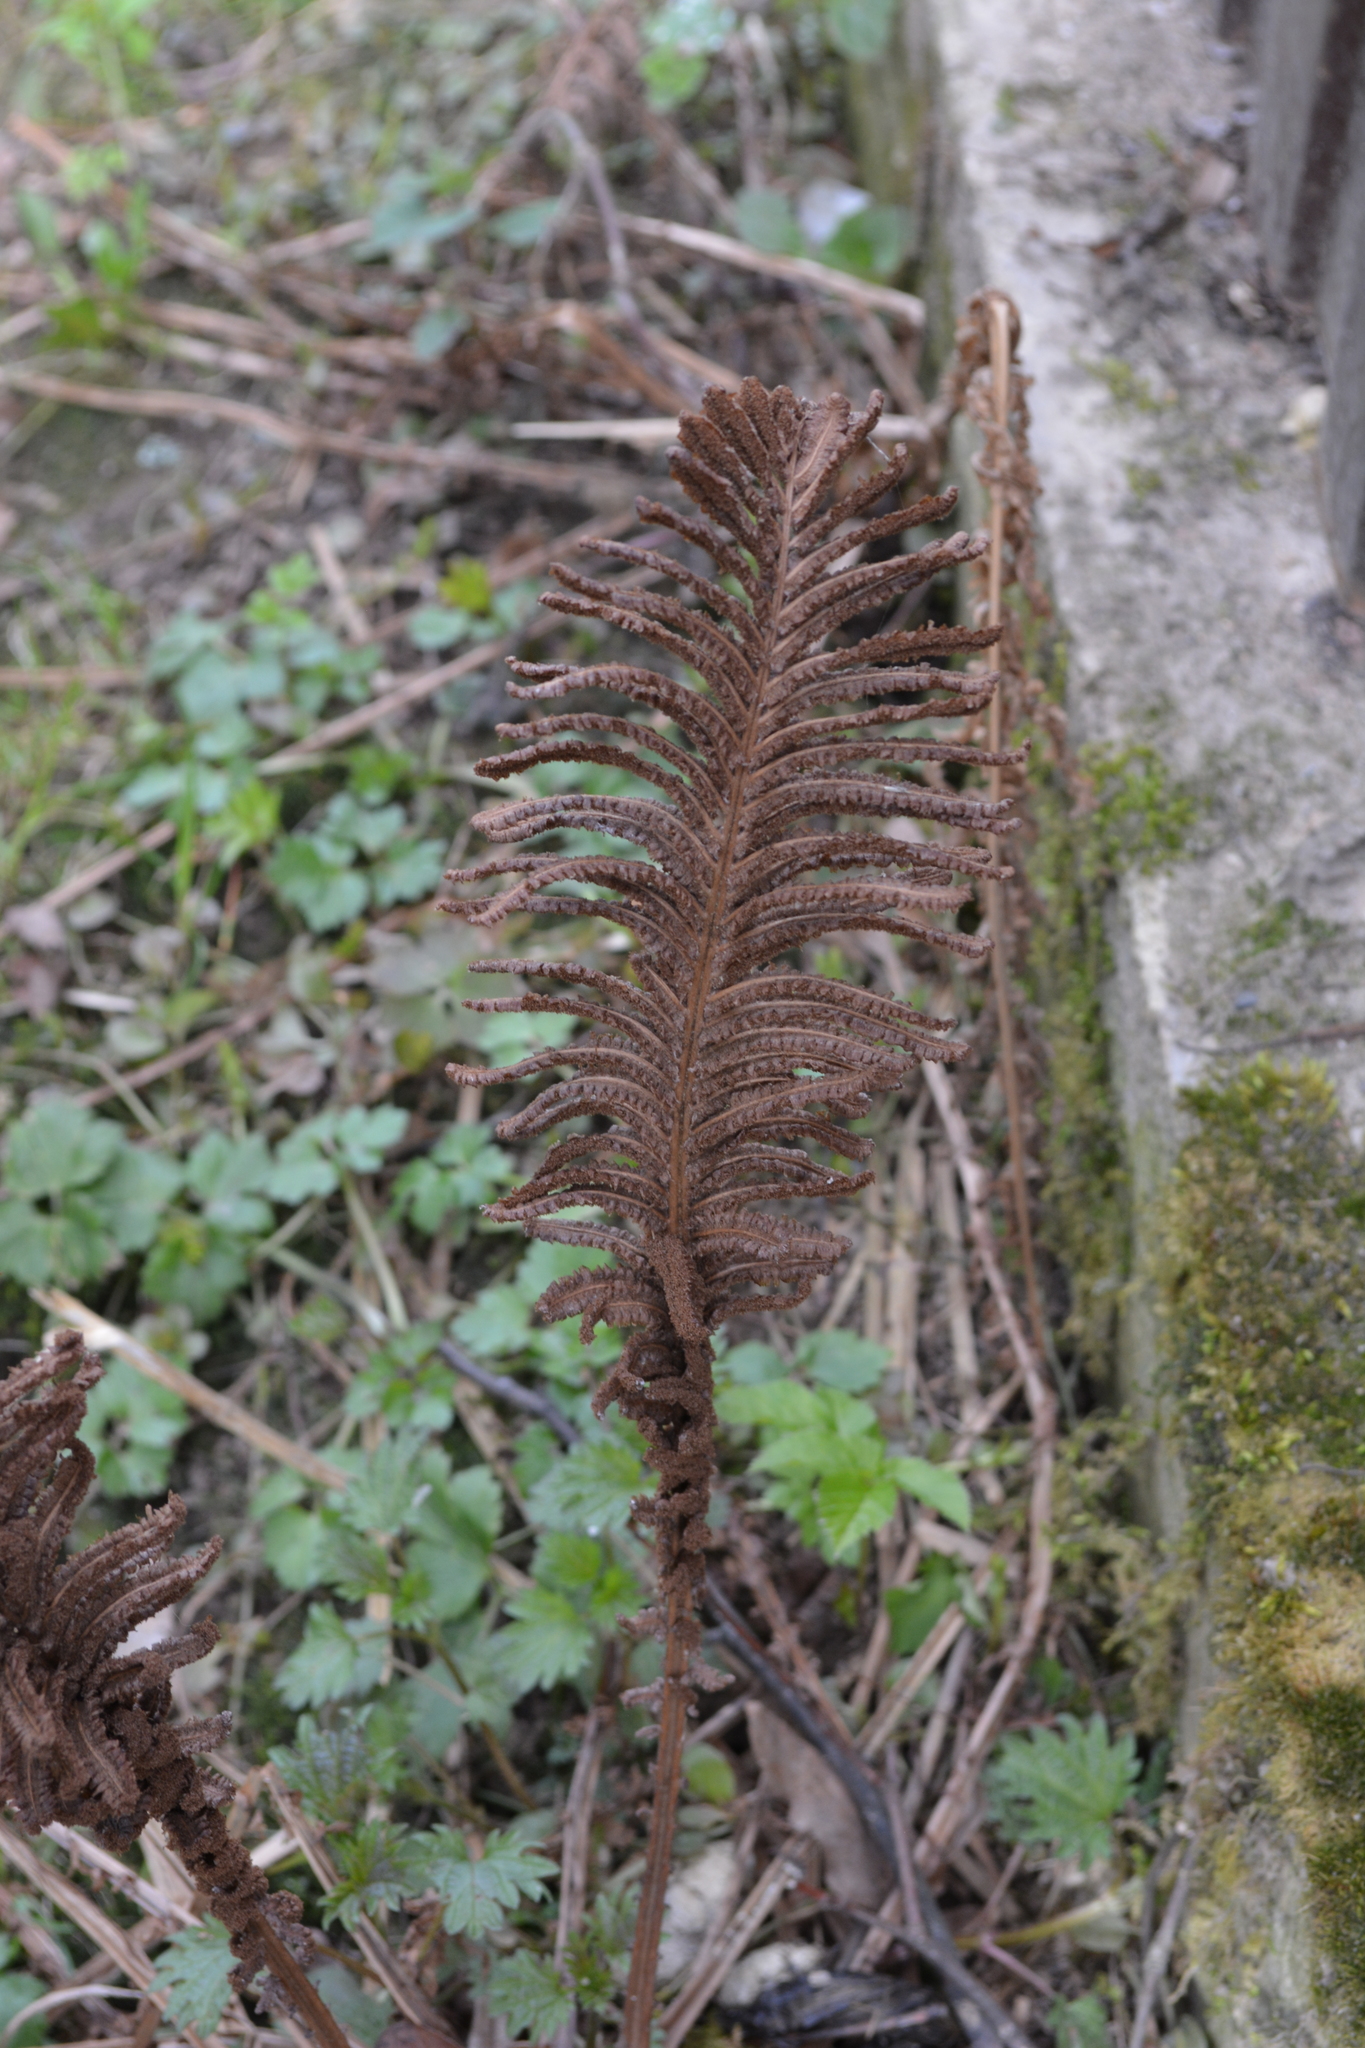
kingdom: Plantae
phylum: Tracheophyta
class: Polypodiopsida
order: Polypodiales
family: Onocleaceae
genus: Matteuccia
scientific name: Matteuccia struthiopteris
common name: Ostrich fern
